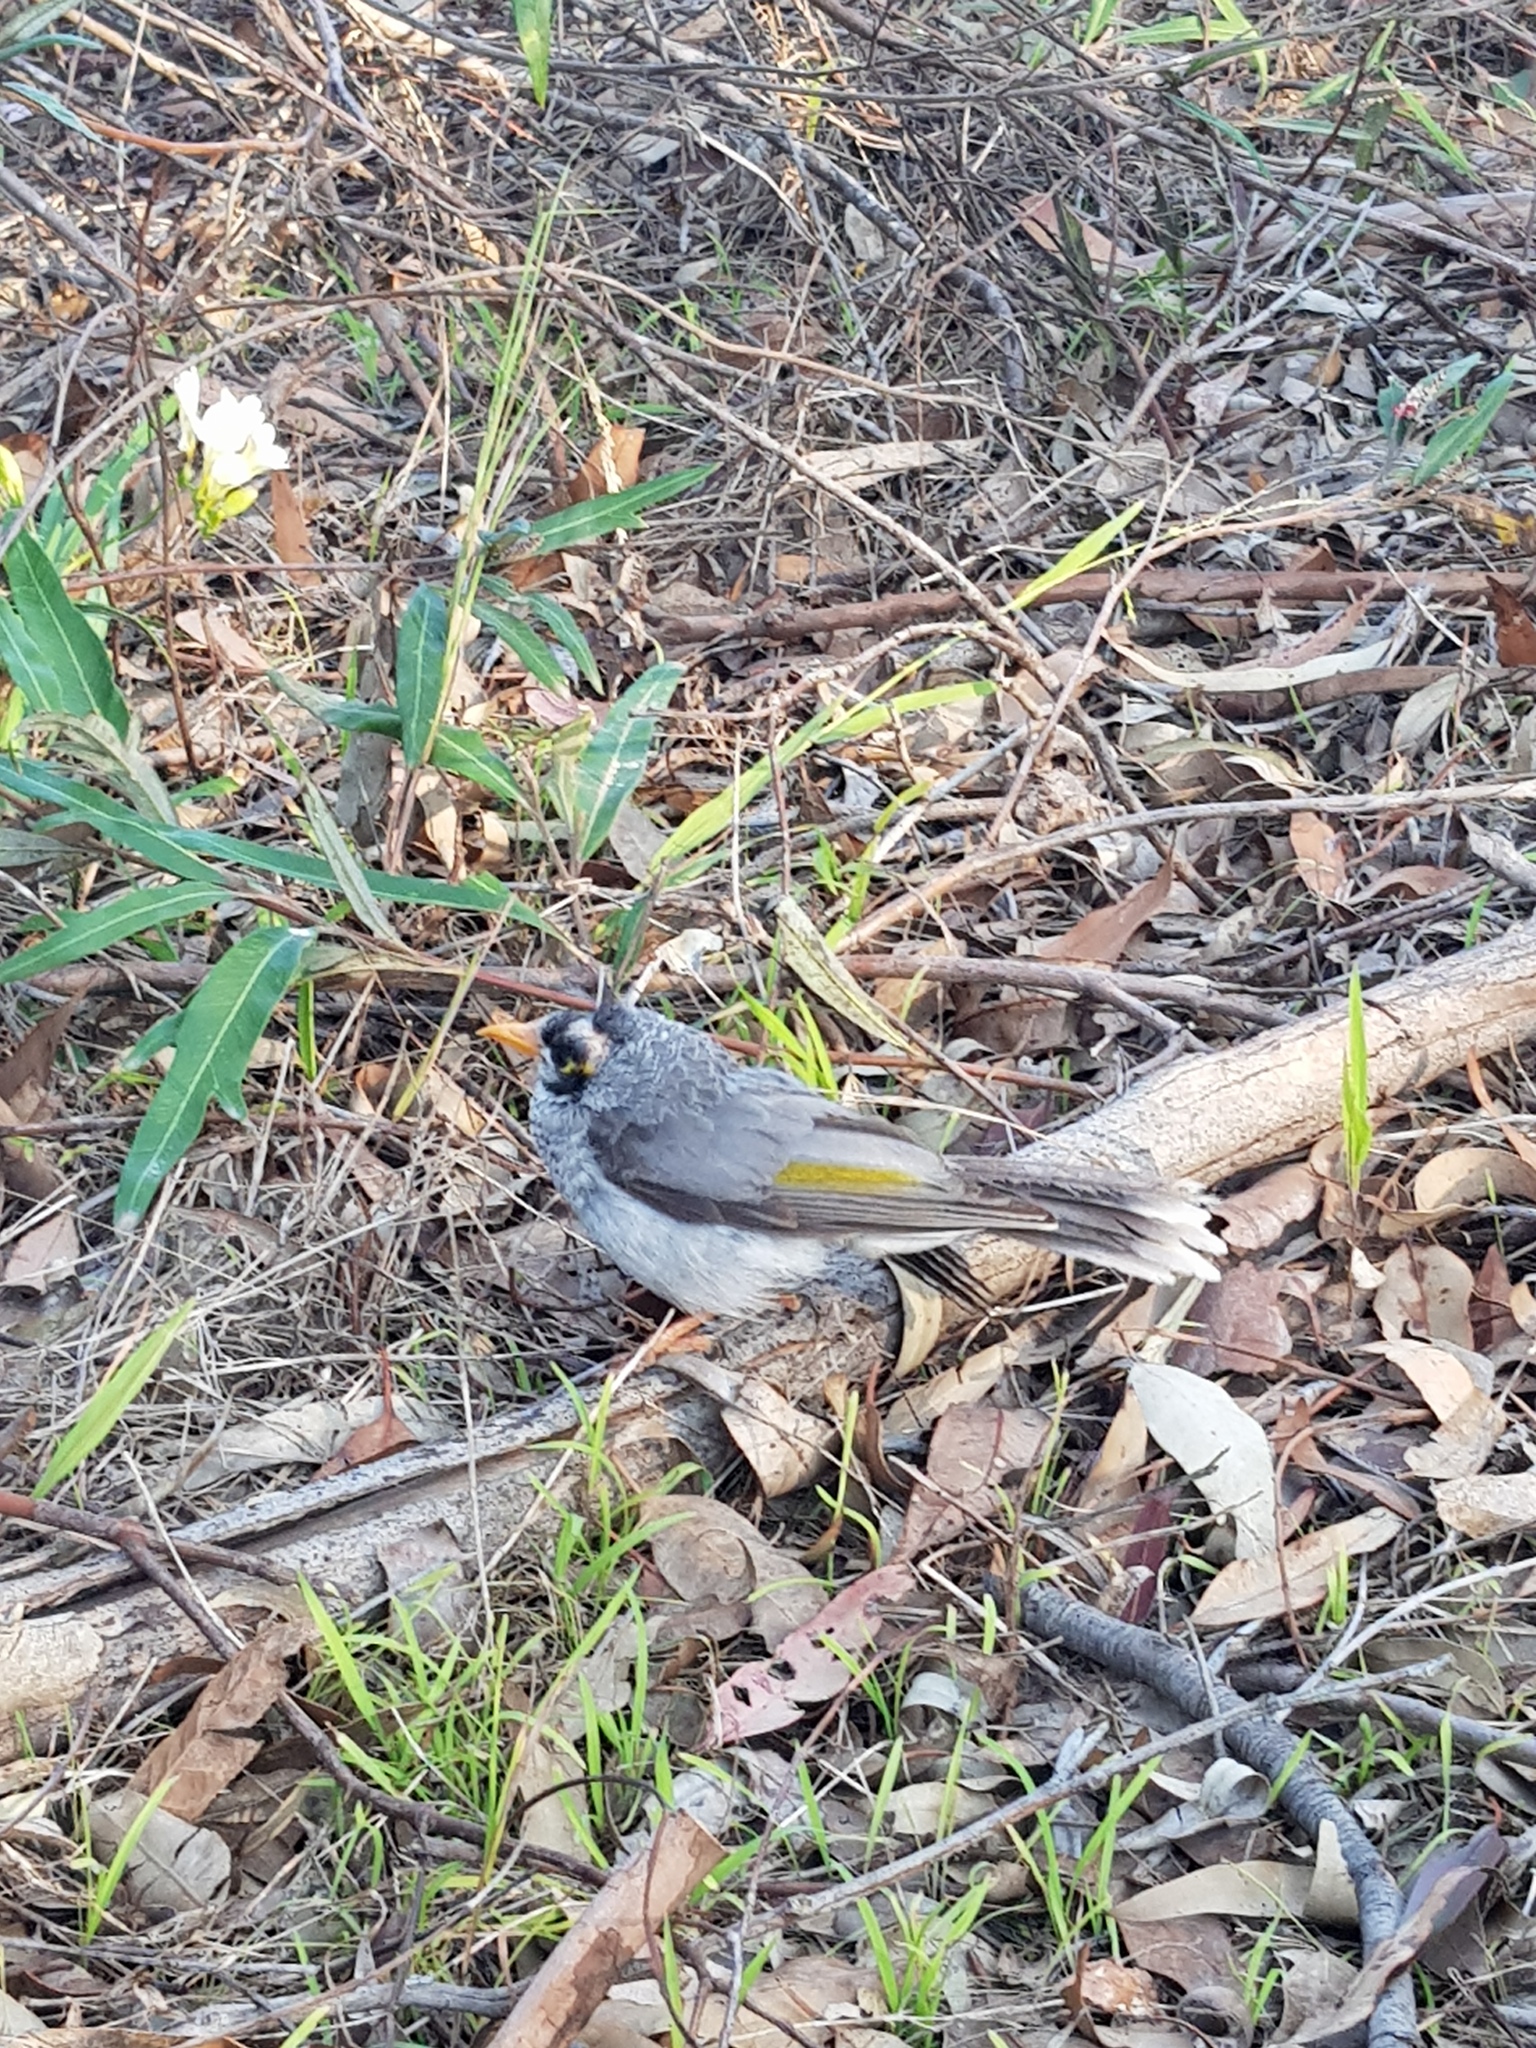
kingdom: Animalia
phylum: Chordata
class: Aves
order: Passeriformes
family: Meliphagidae
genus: Manorina
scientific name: Manorina melanocephala
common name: Noisy miner
